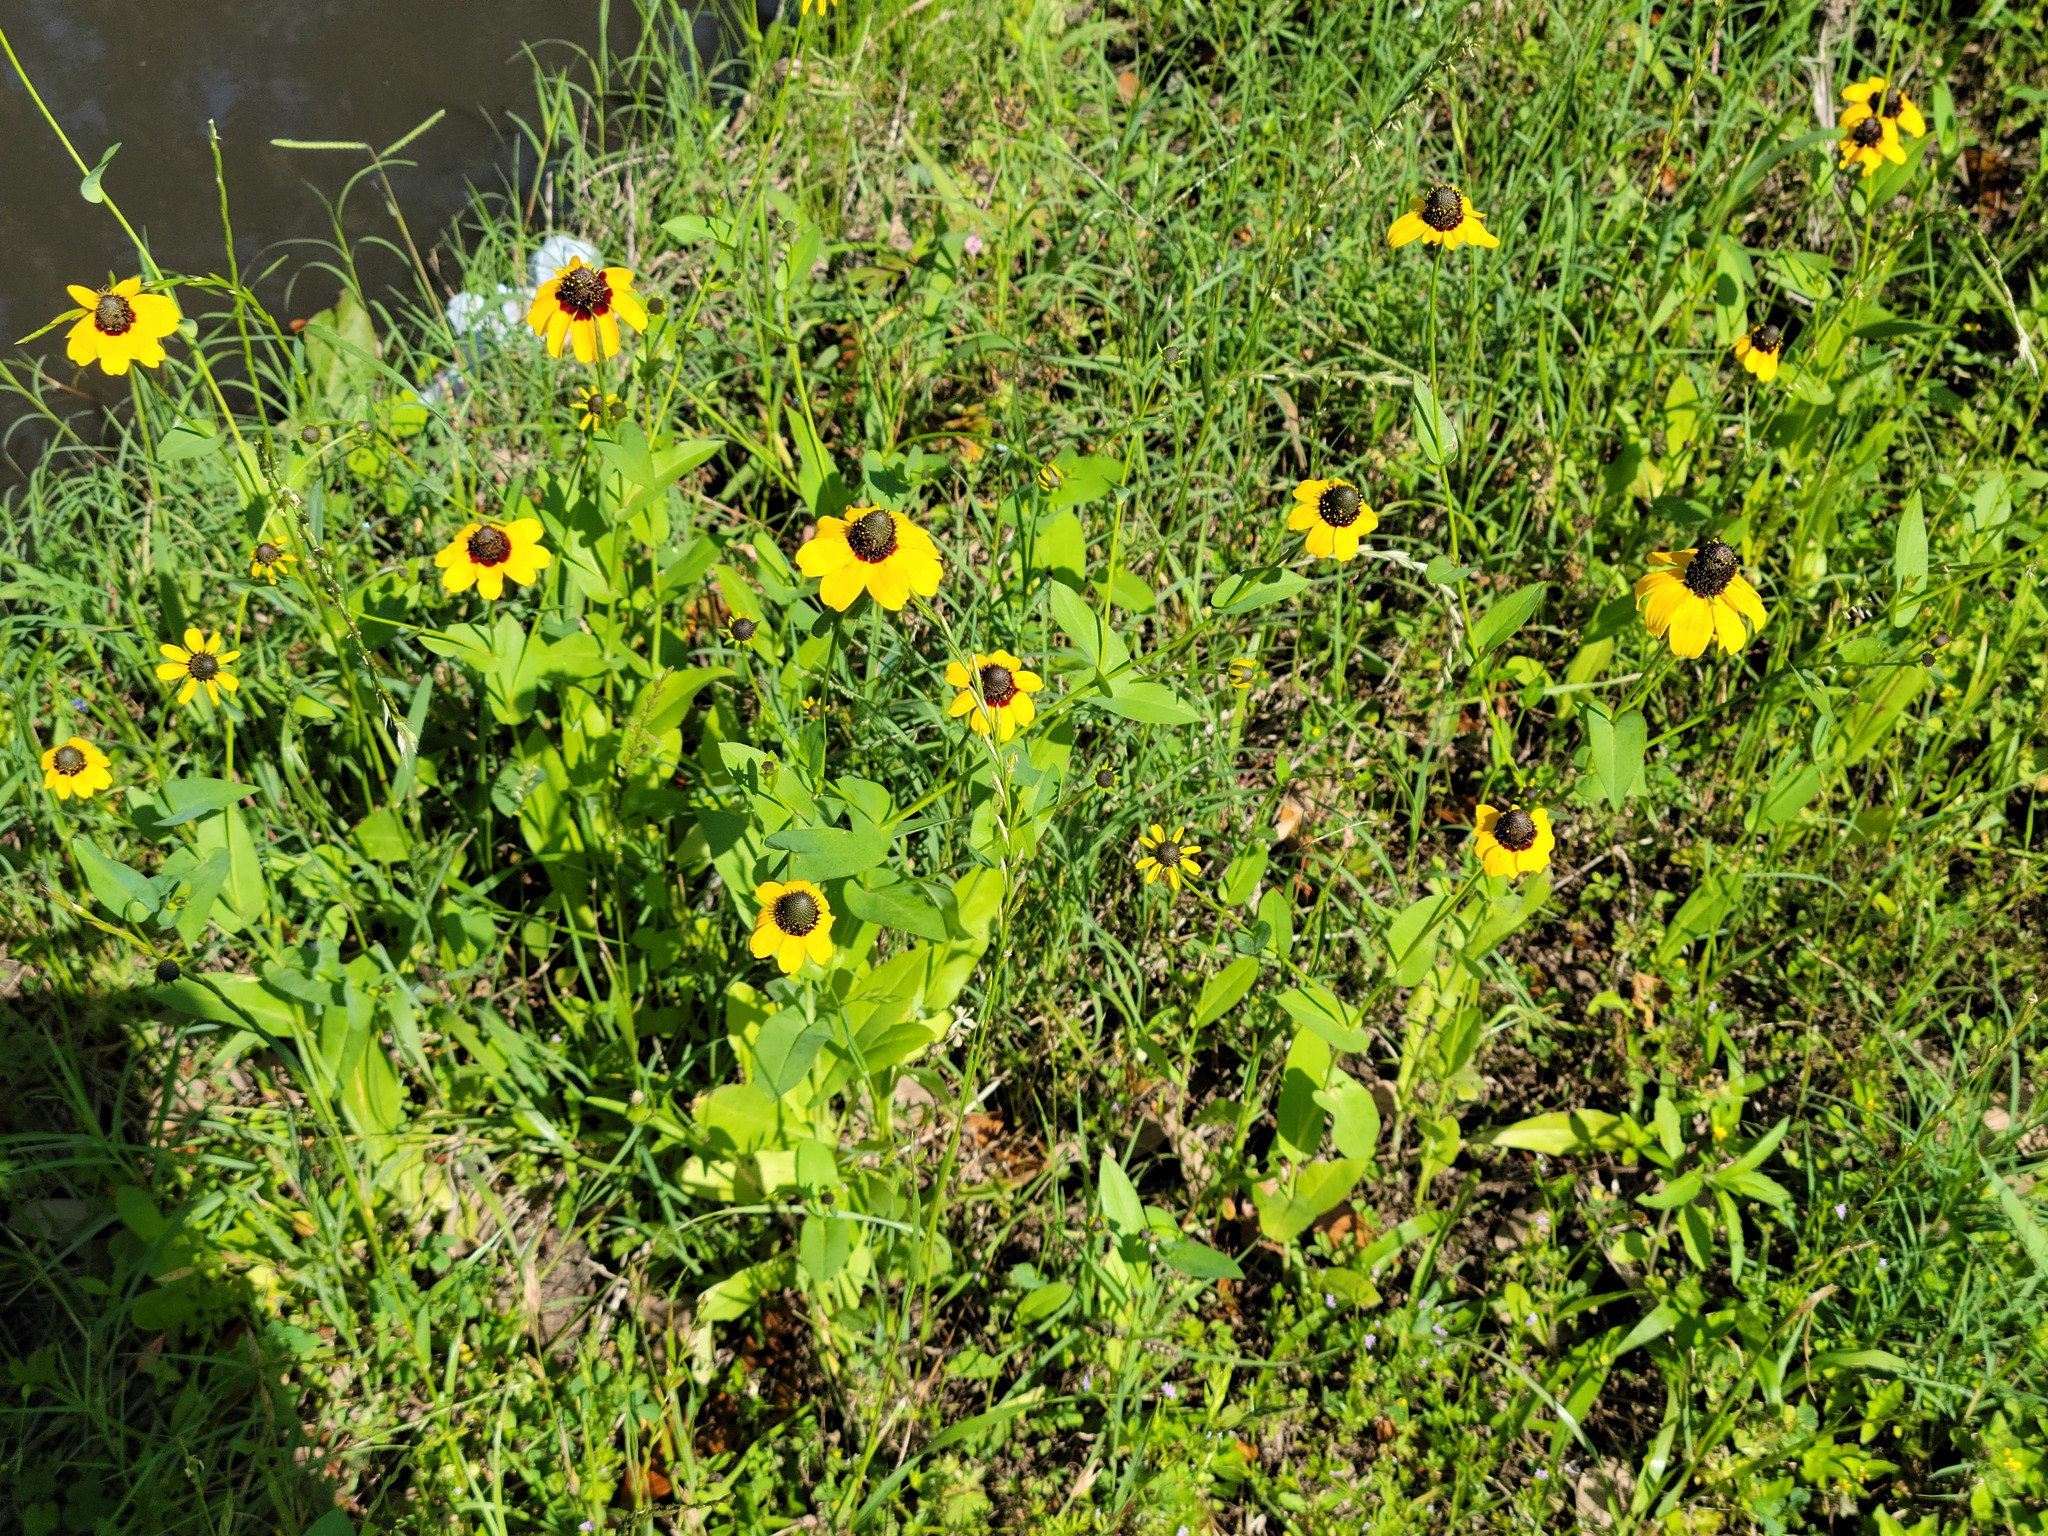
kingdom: Plantae
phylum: Tracheophyta
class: Magnoliopsida
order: Asterales
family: Asteraceae
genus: Rudbeckia
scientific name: Rudbeckia amplexicaulis
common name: Clasping-leaf coneflower
